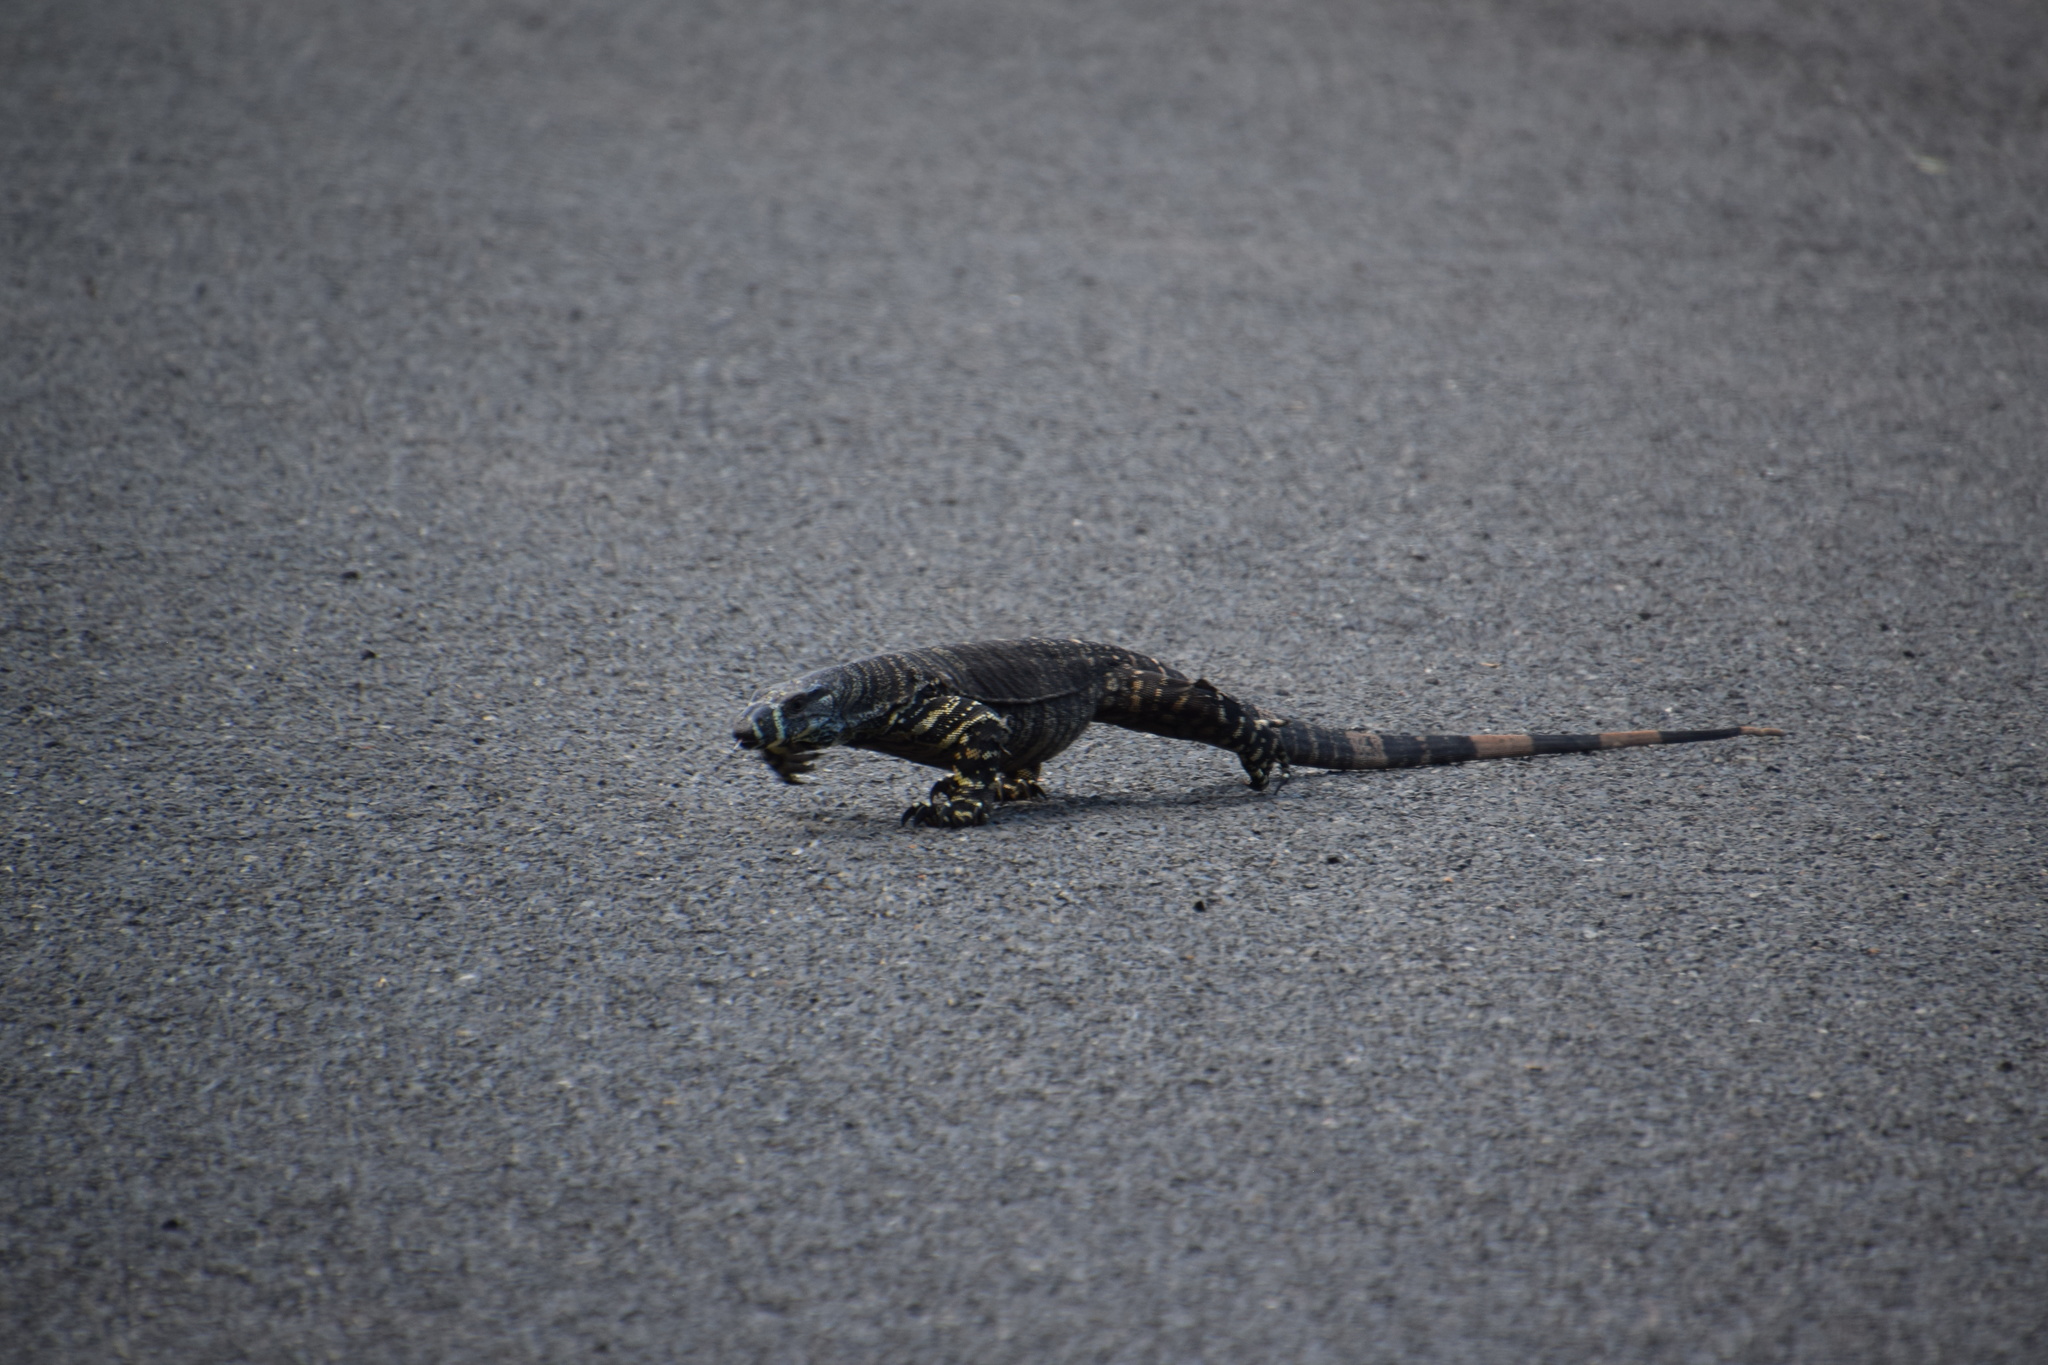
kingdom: Animalia
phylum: Chordata
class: Squamata
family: Varanidae
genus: Varanus
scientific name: Varanus varius
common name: Lace monitor
